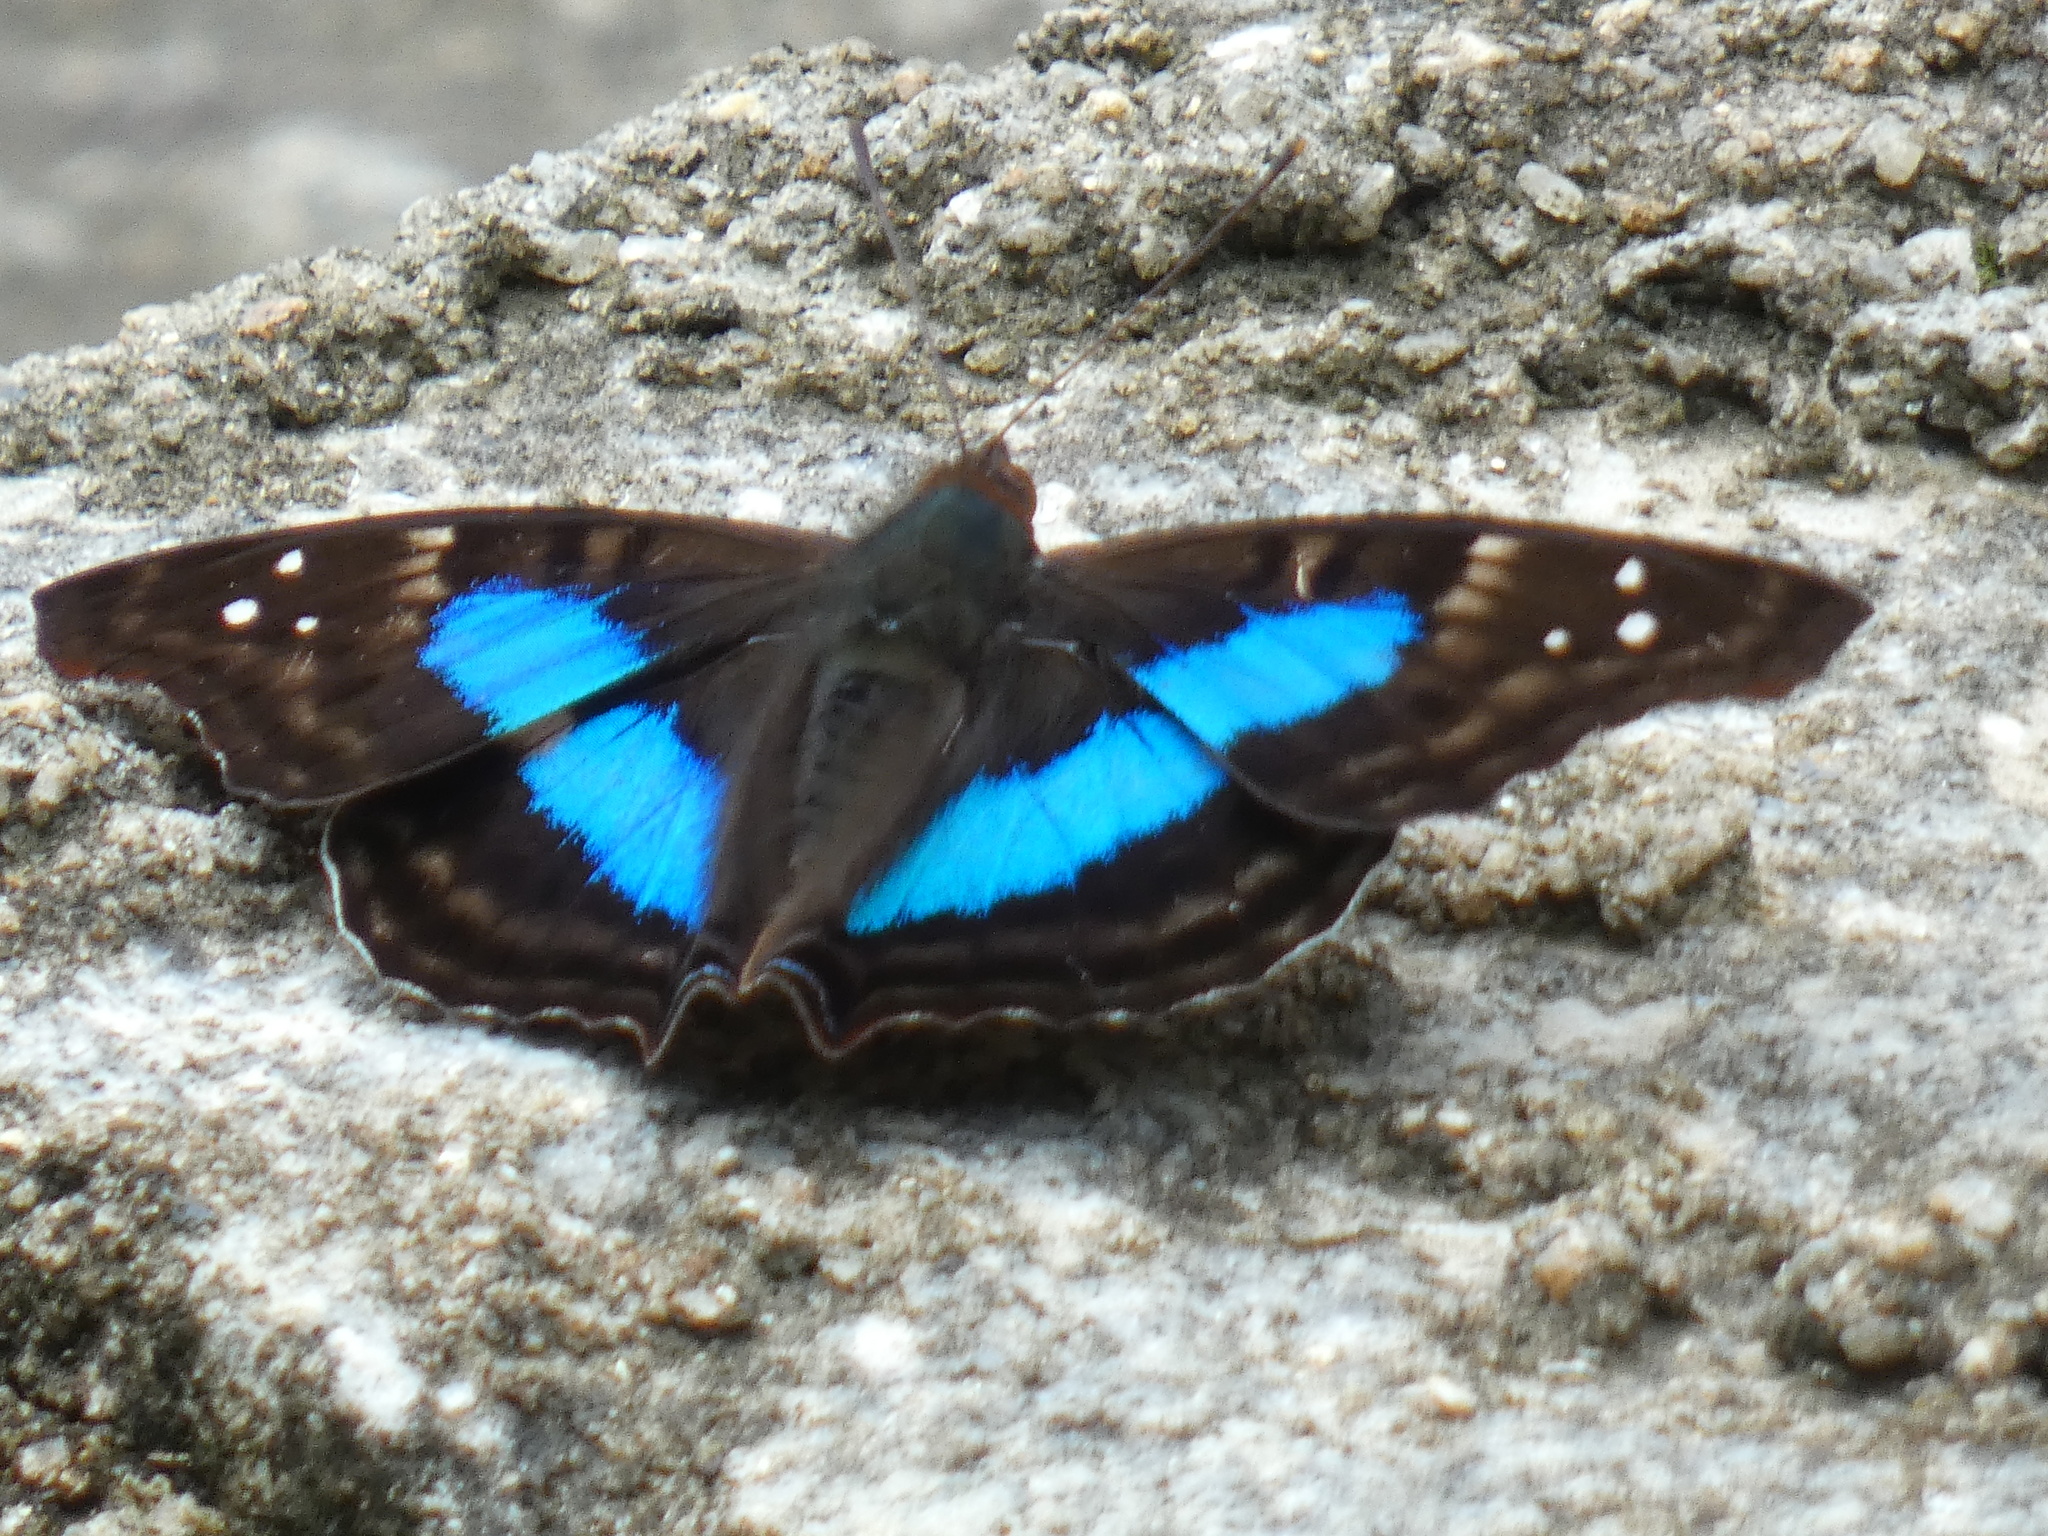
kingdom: Animalia
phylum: Arthropoda
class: Insecta
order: Lepidoptera
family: Nymphalidae
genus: Doxocopa
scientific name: Doxocopa laurentia
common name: Turquoise emperor
